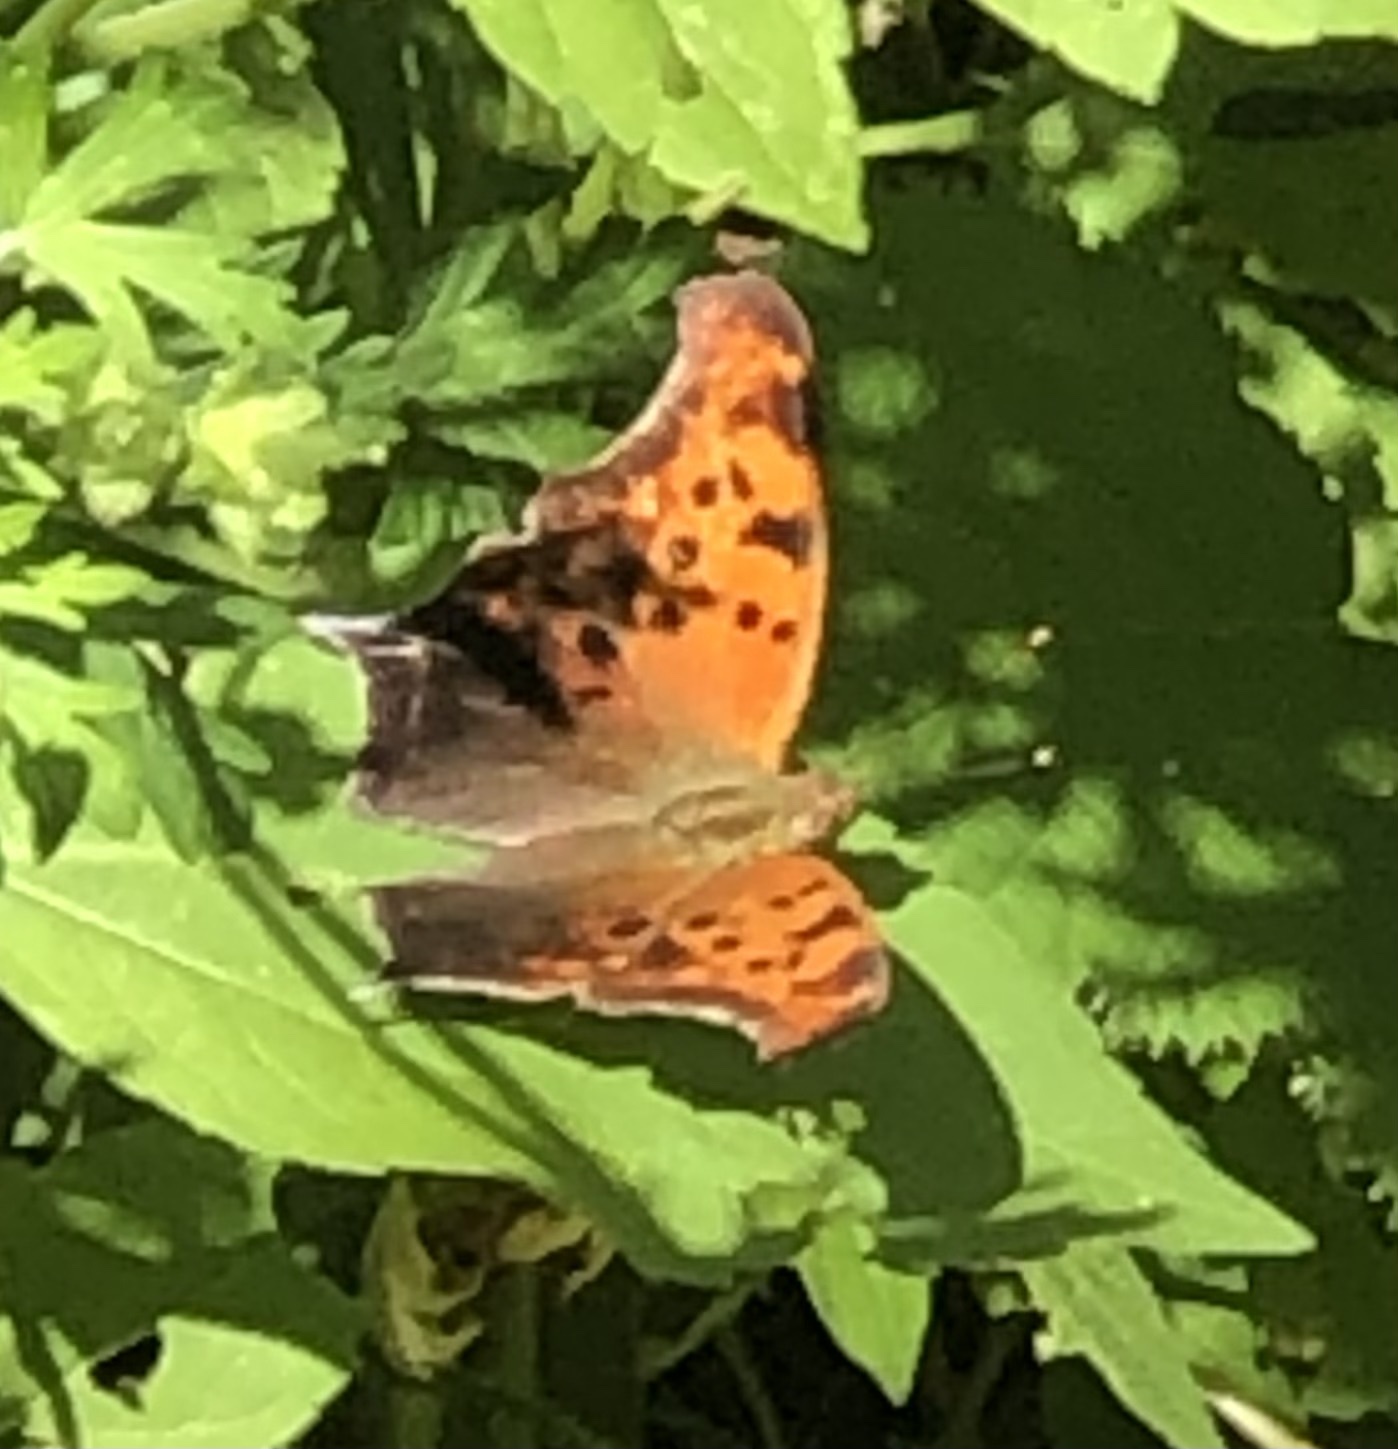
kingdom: Animalia
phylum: Arthropoda
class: Insecta
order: Lepidoptera
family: Nymphalidae
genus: Polygonia
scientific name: Polygonia interrogationis
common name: Question mark
